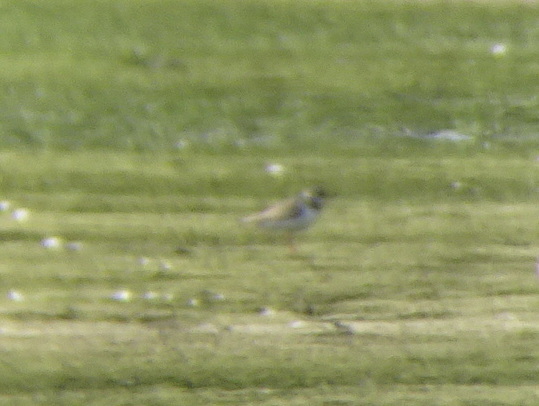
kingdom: Animalia
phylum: Chordata
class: Aves
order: Charadriiformes
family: Charadriidae
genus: Charadrius
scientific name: Charadrius hiaticula
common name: Common ringed plover
